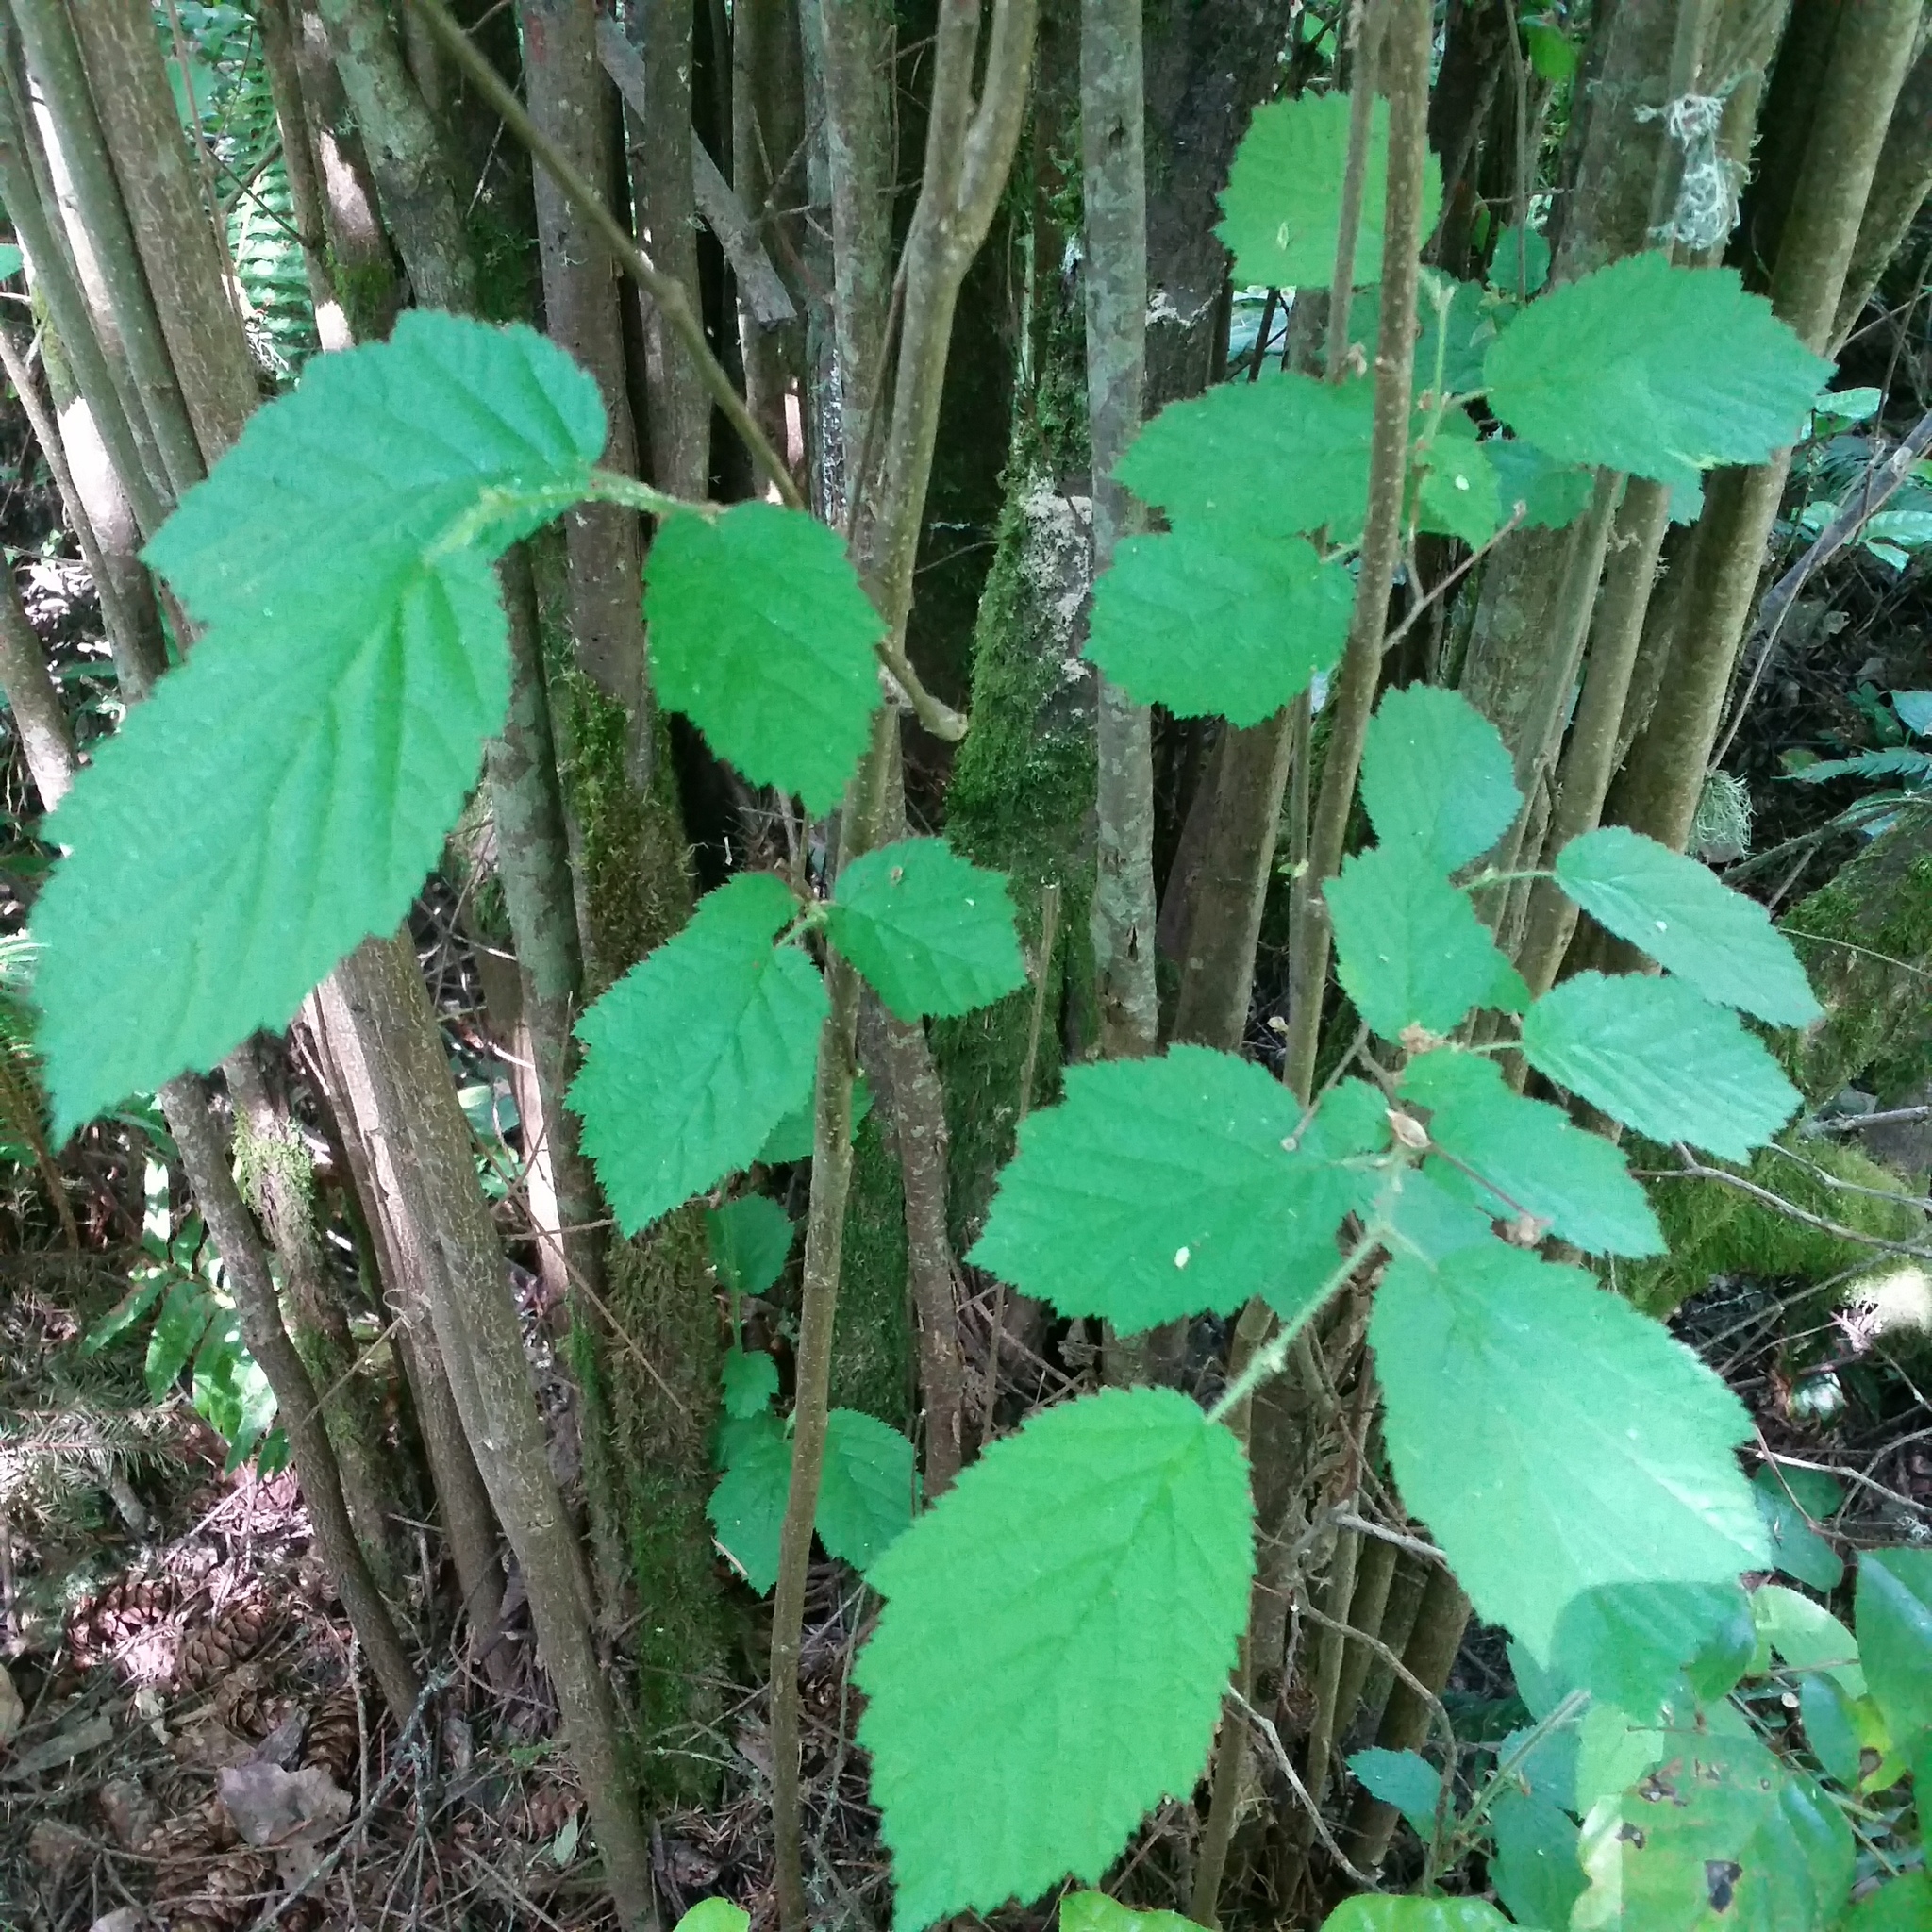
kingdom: Plantae
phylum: Tracheophyta
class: Magnoliopsida
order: Fagales
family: Betulaceae
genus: Corylus
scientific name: Corylus cornuta
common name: Beaked hazel
